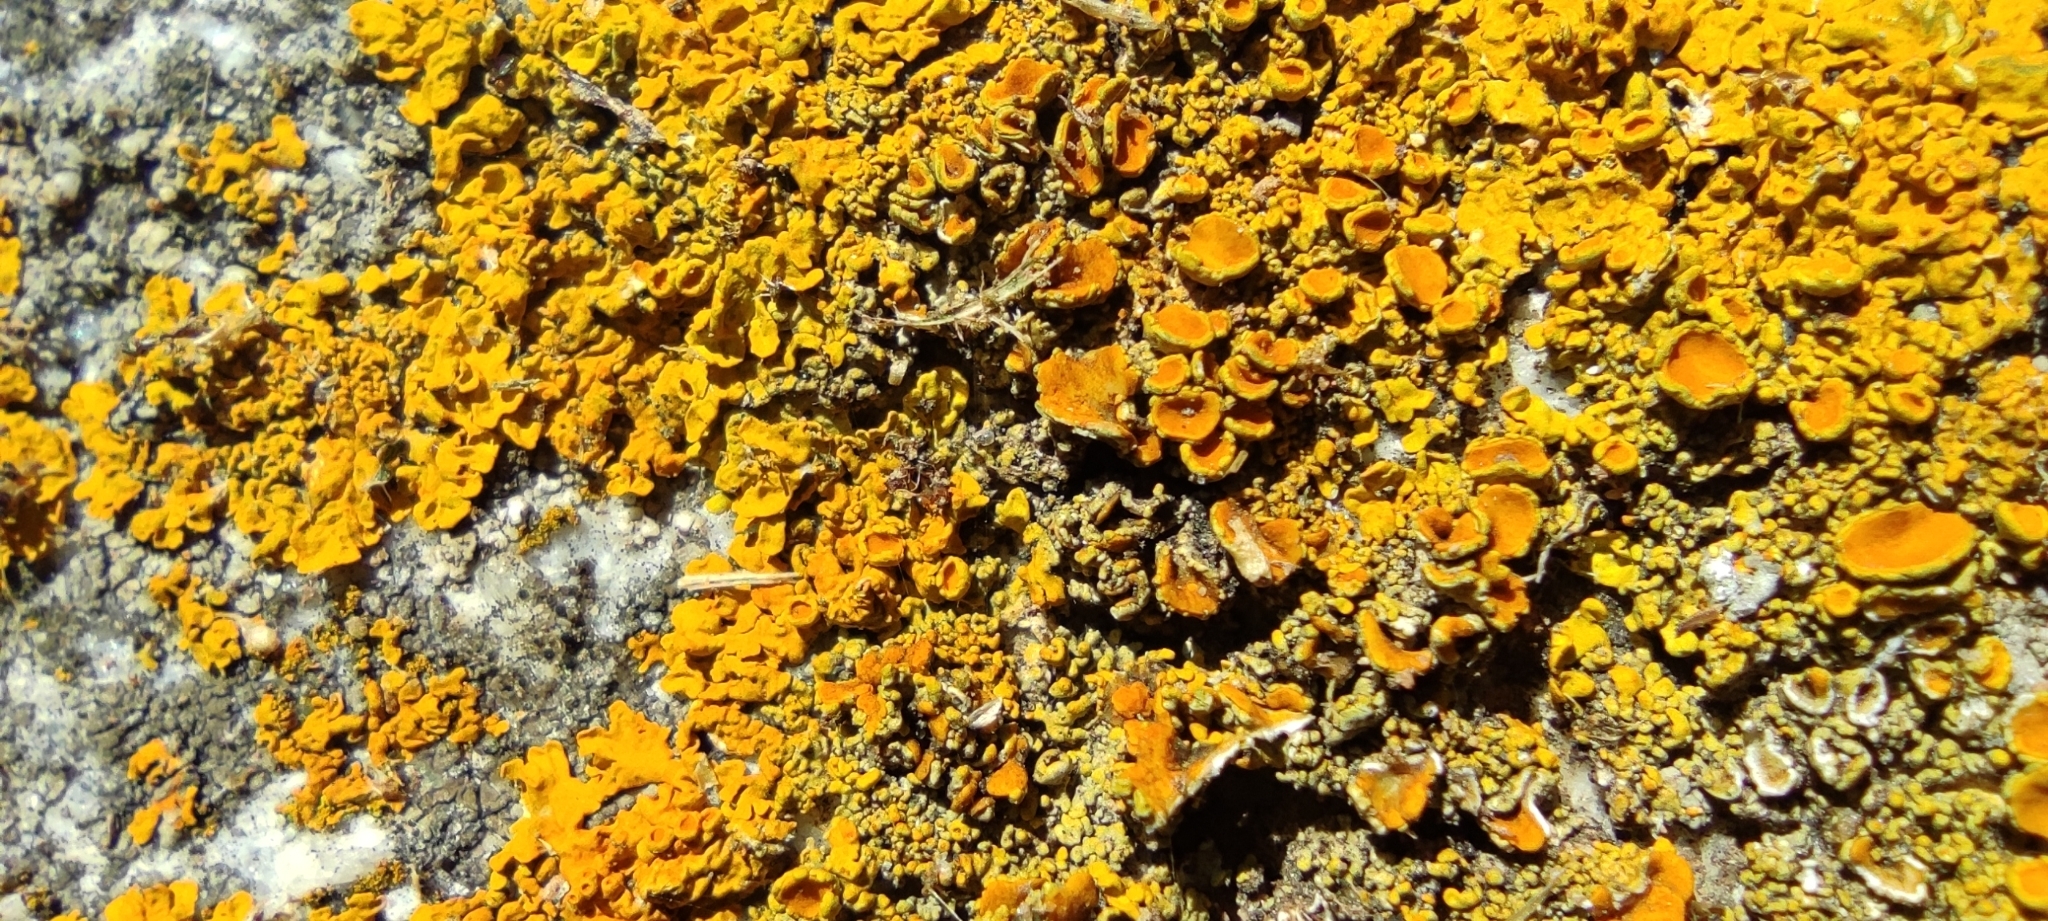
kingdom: Fungi
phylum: Ascomycota
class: Lecanoromycetes
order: Teloschistales
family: Teloschistaceae
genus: Xanthoria
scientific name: Xanthoria parietina
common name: Common orange lichen
